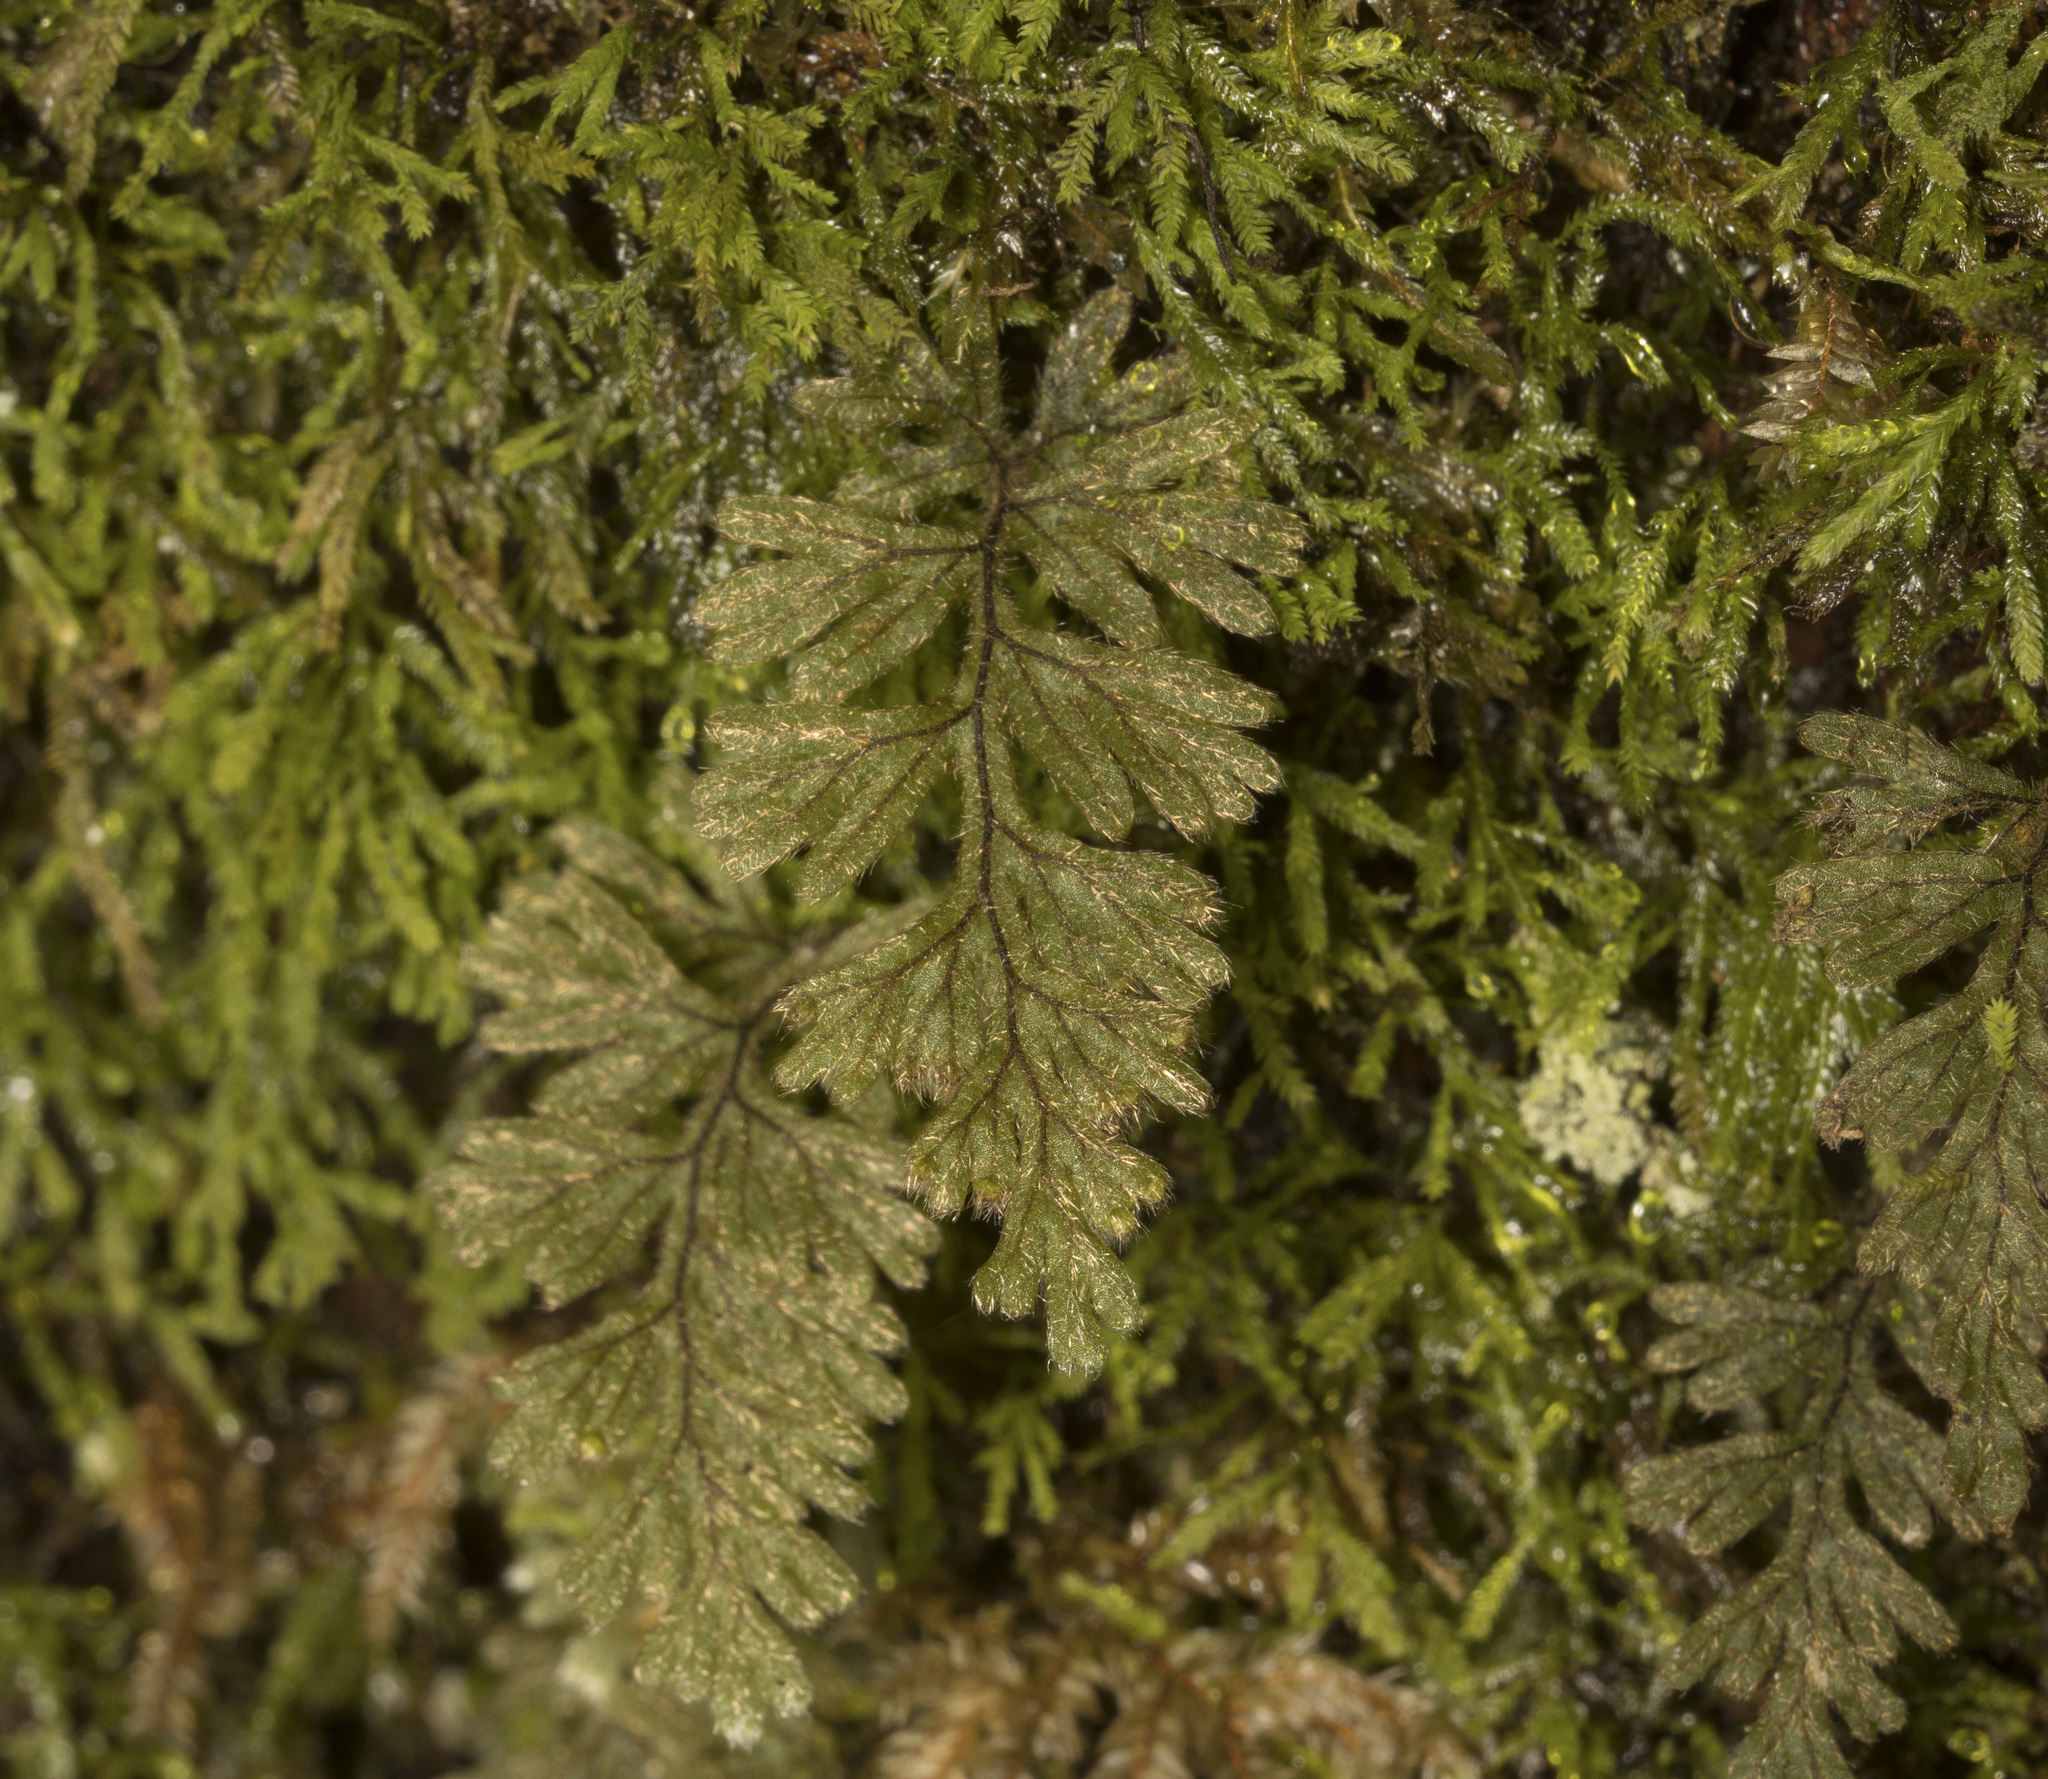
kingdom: Plantae
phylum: Tracheophyta
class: Polypodiopsida
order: Hymenophyllales
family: Hymenophyllaceae
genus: Hymenophyllum
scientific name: Hymenophyllum ferrugineum
